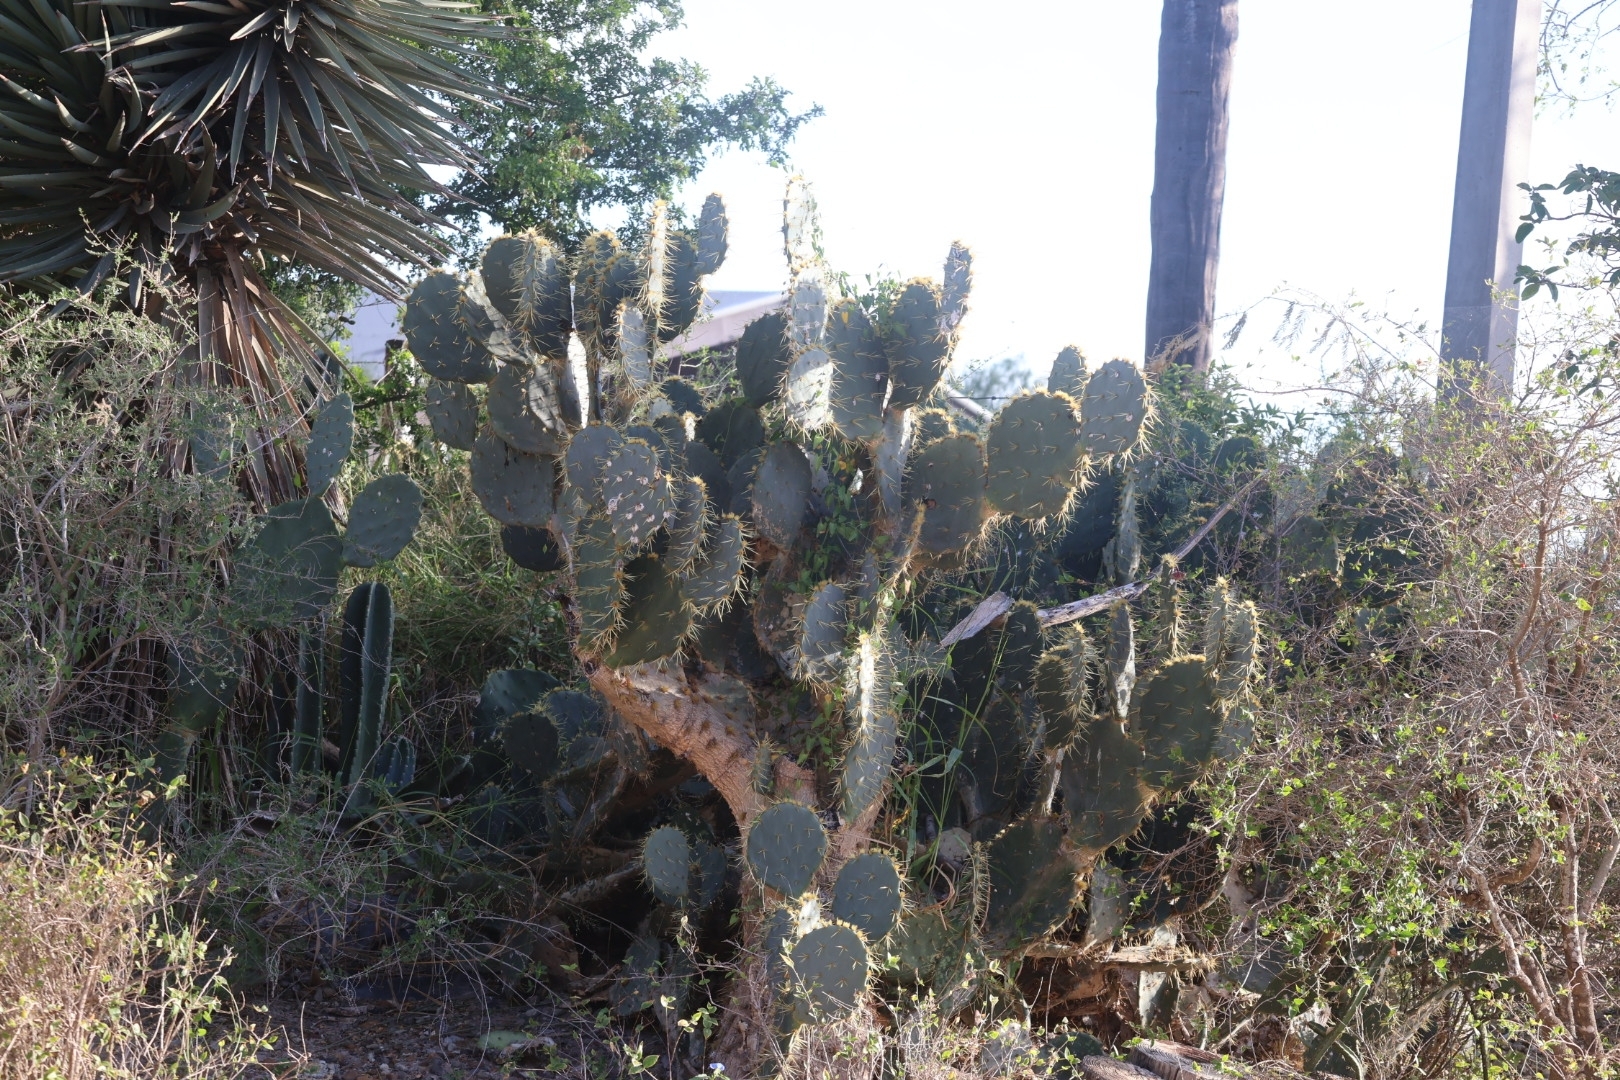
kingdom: Plantae
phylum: Tracheophyta
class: Magnoliopsida
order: Caryophyllales
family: Cactaceae
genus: Opuntia
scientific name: Opuntia alta
